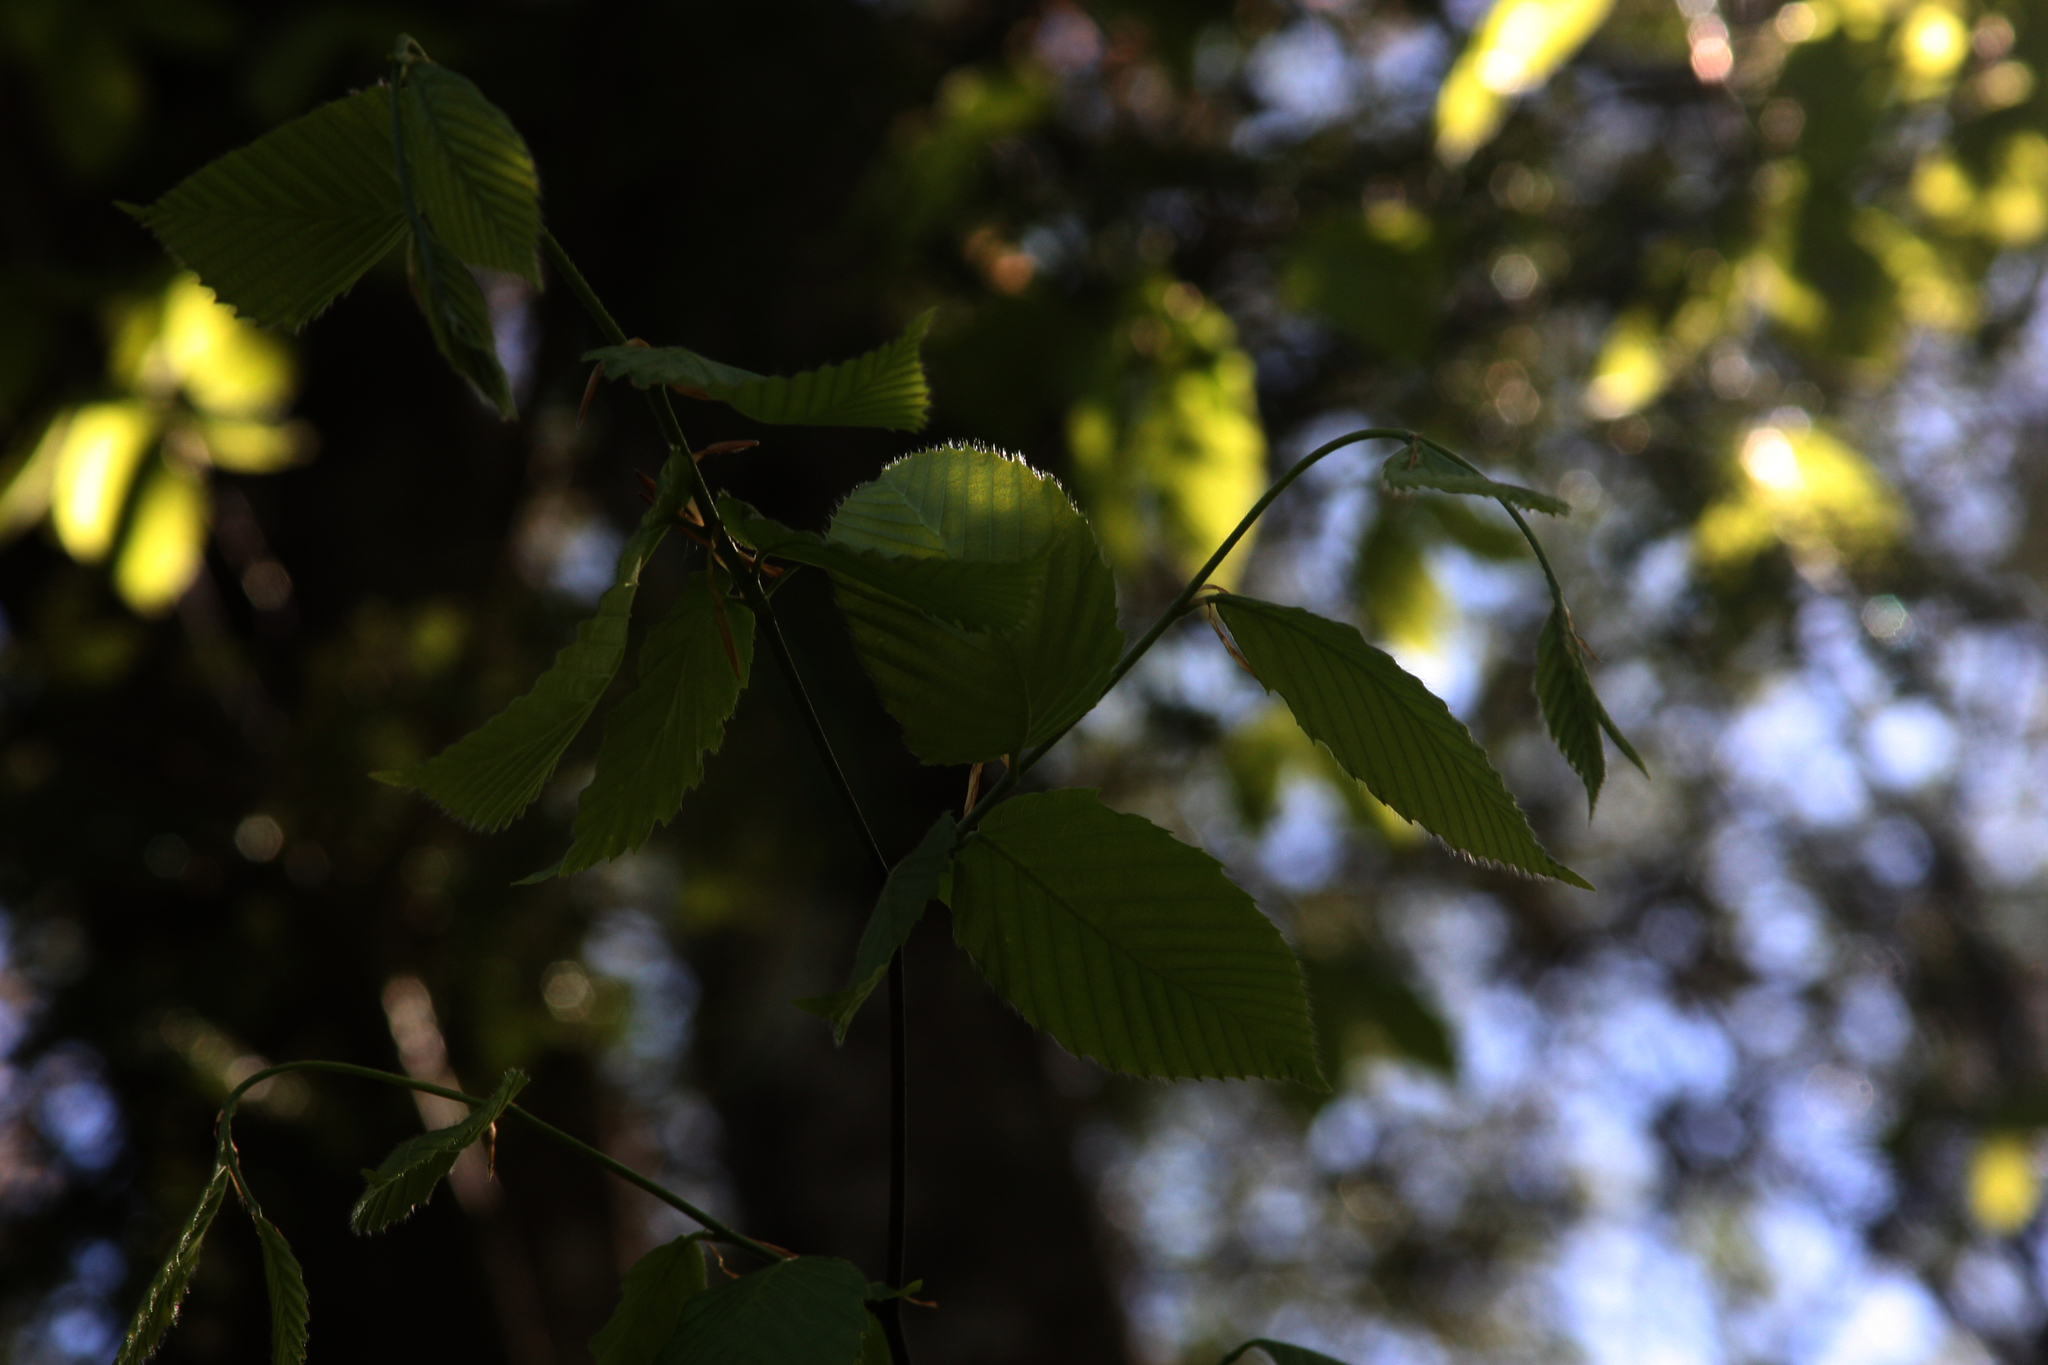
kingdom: Plantae
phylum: Tracheophyta
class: Magnoliopsida
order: Fagales
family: Fagaceae
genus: Fagus
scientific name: Fagus grandifolia
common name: American beech
